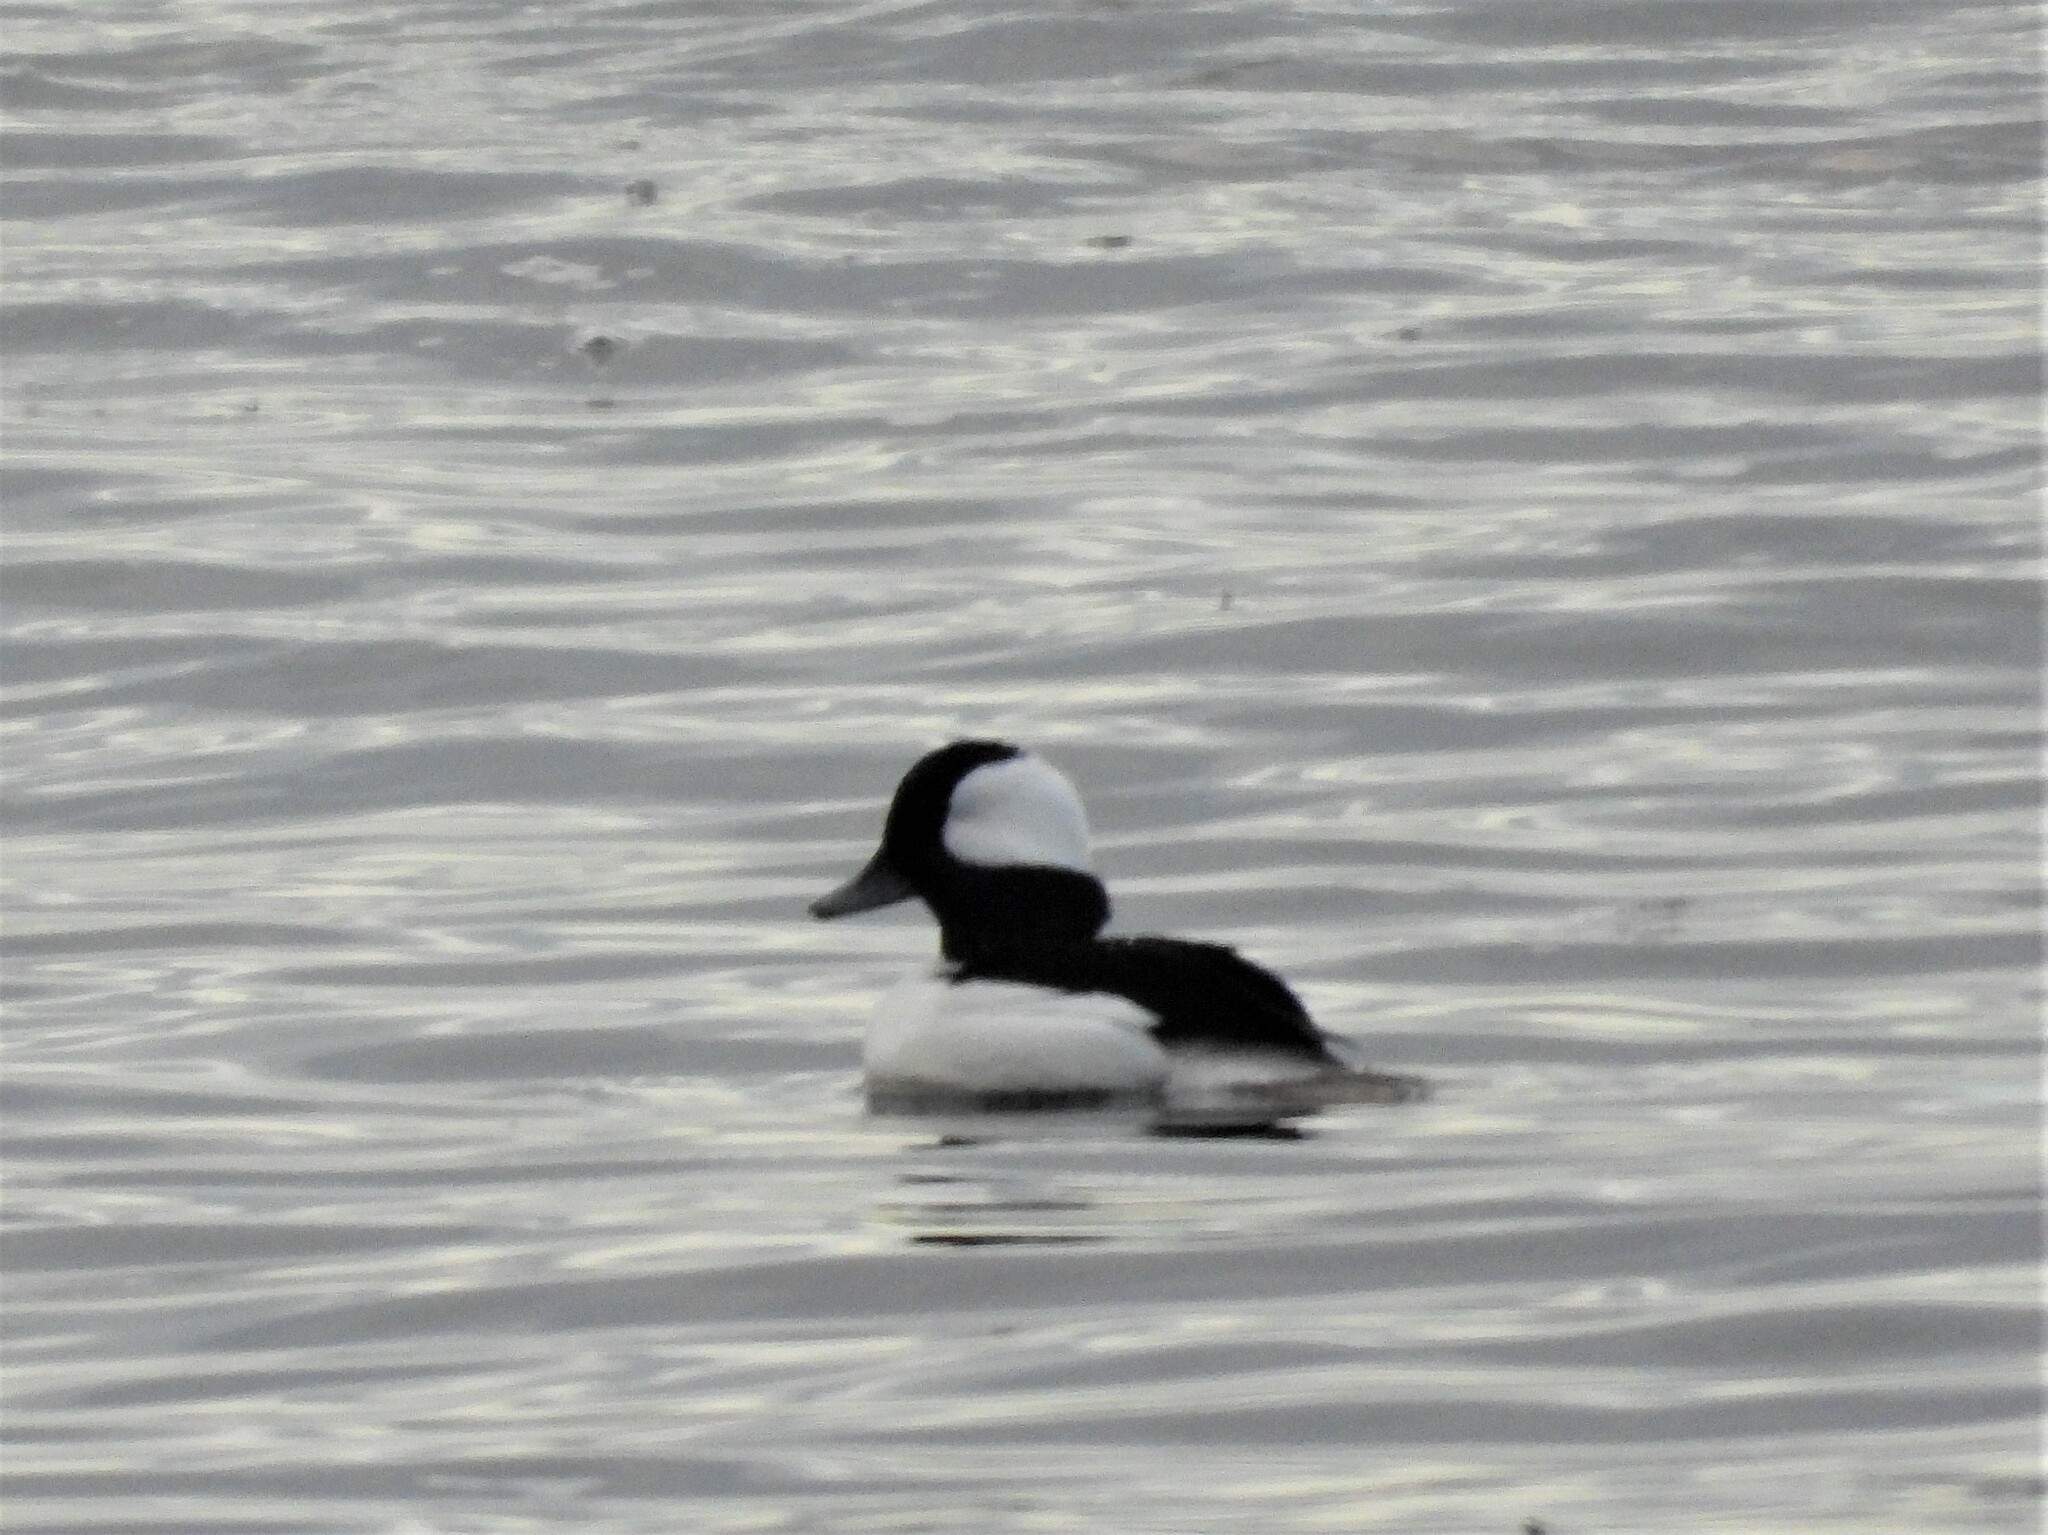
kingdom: Animalia
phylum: Chordata
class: Aves
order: Anseriformes
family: Anatidae
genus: Bucephala
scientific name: Bucephala albeola
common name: Bufflehead
